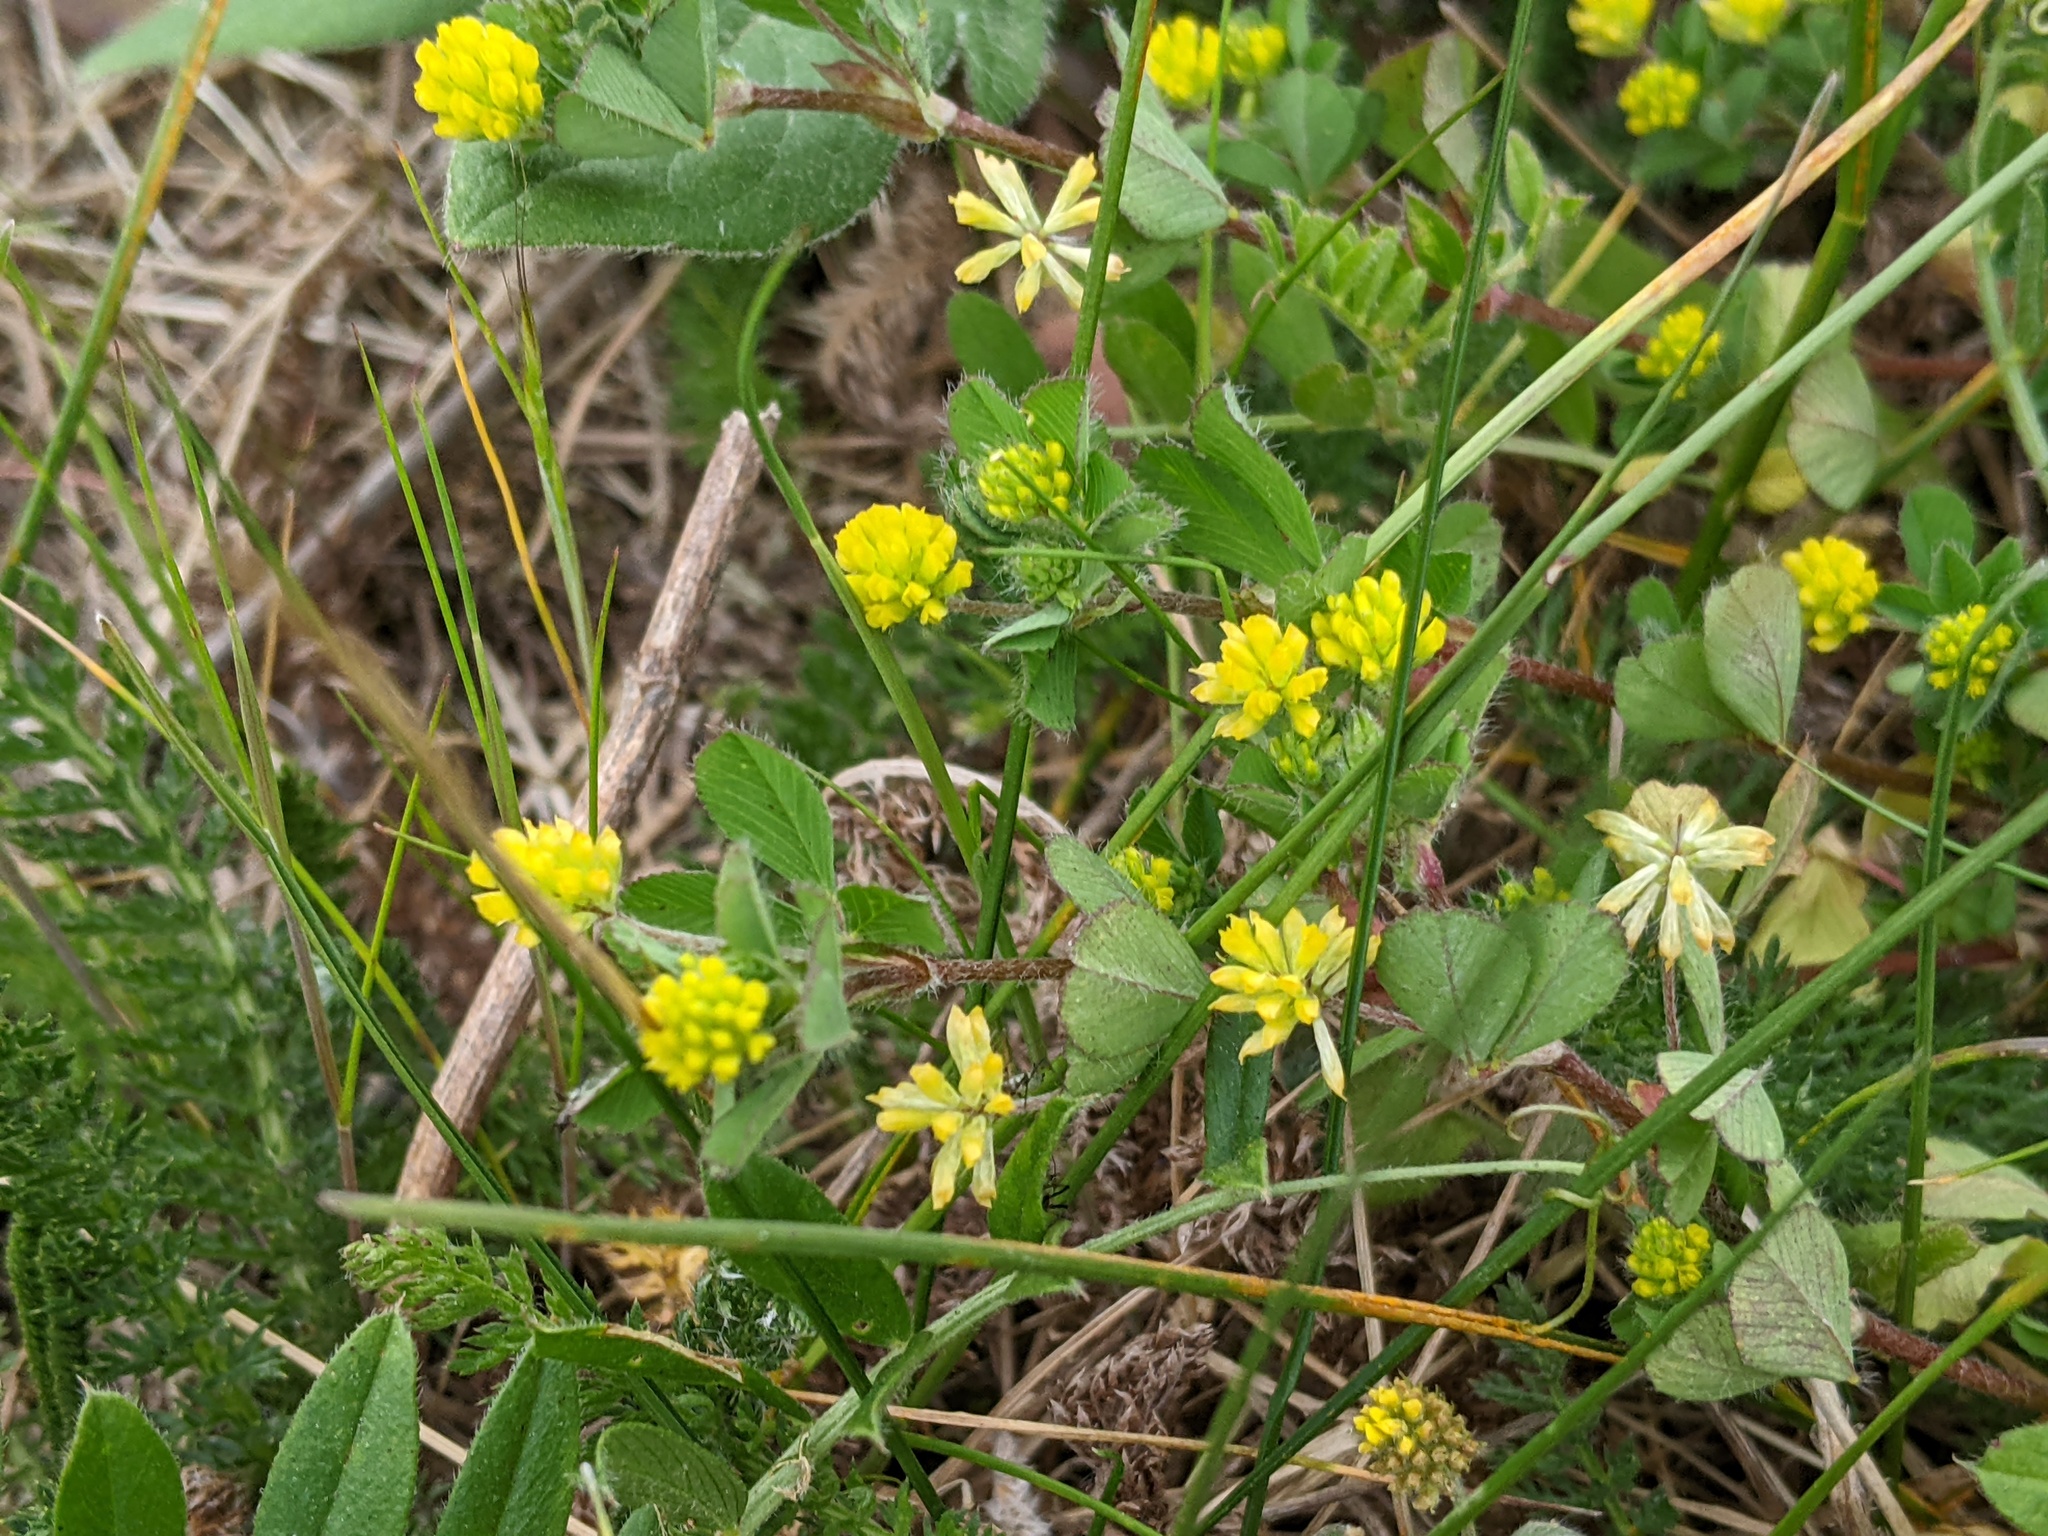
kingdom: Plantae
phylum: Tracheophyta
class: Magnoliopsida
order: Fabales
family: Fabaceae
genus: Trifolium
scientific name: Trifolium dubium
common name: Suckling clover
